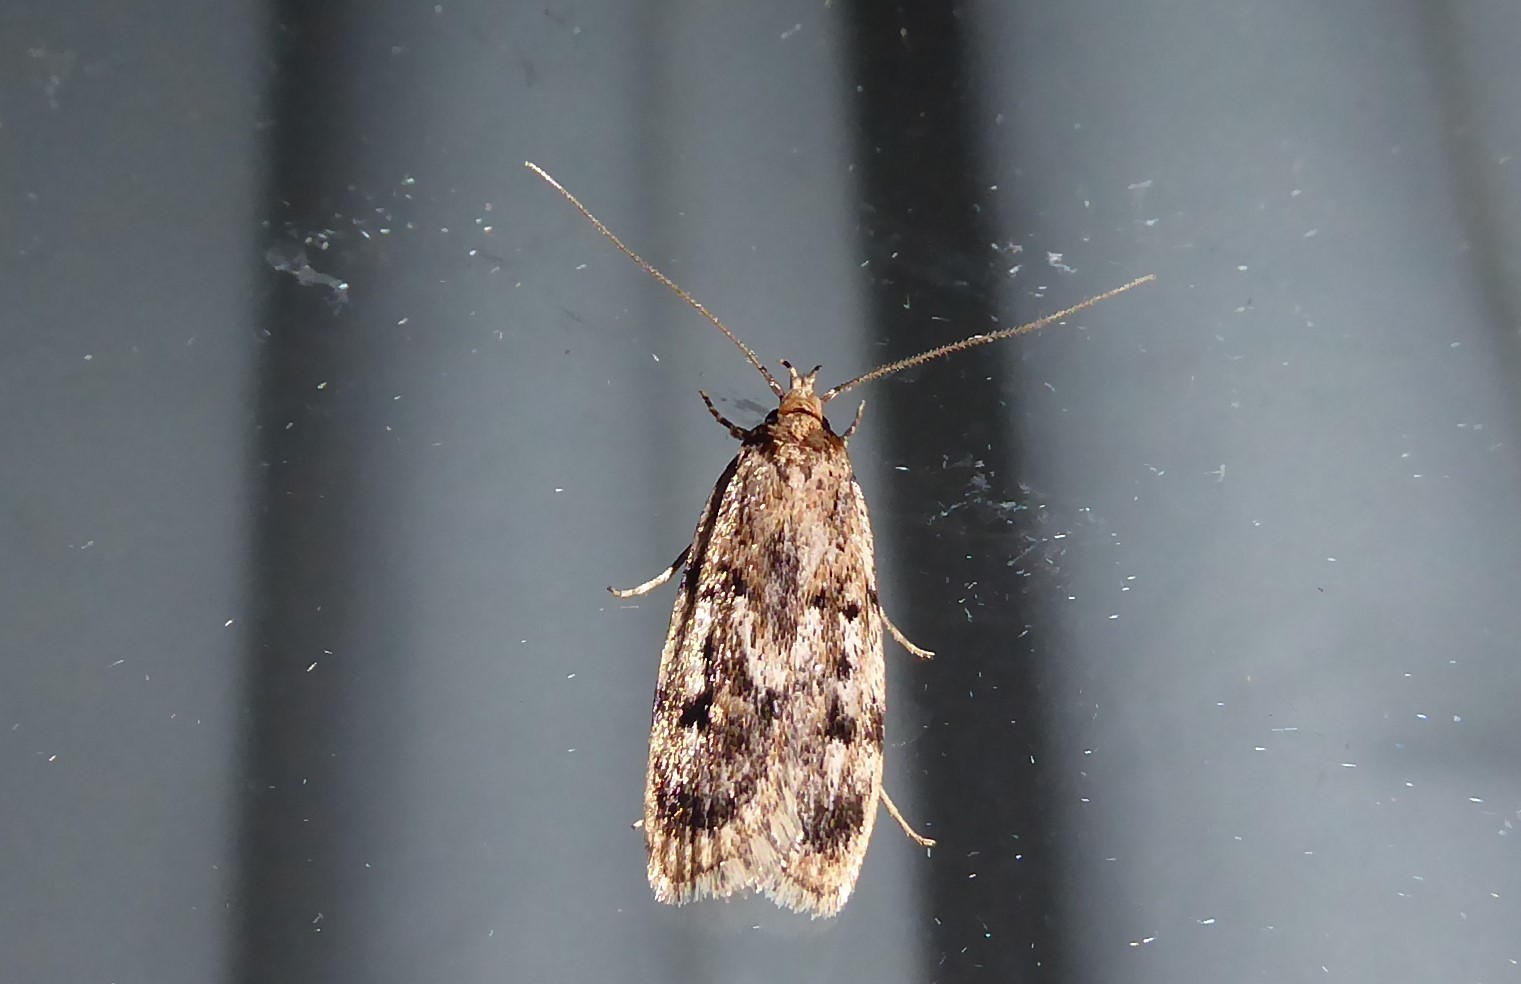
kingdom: Animalia
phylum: Arthropoda
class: Insecta
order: Lepidoptera
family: Oecophoridae
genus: Barea
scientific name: Barea exarcha
